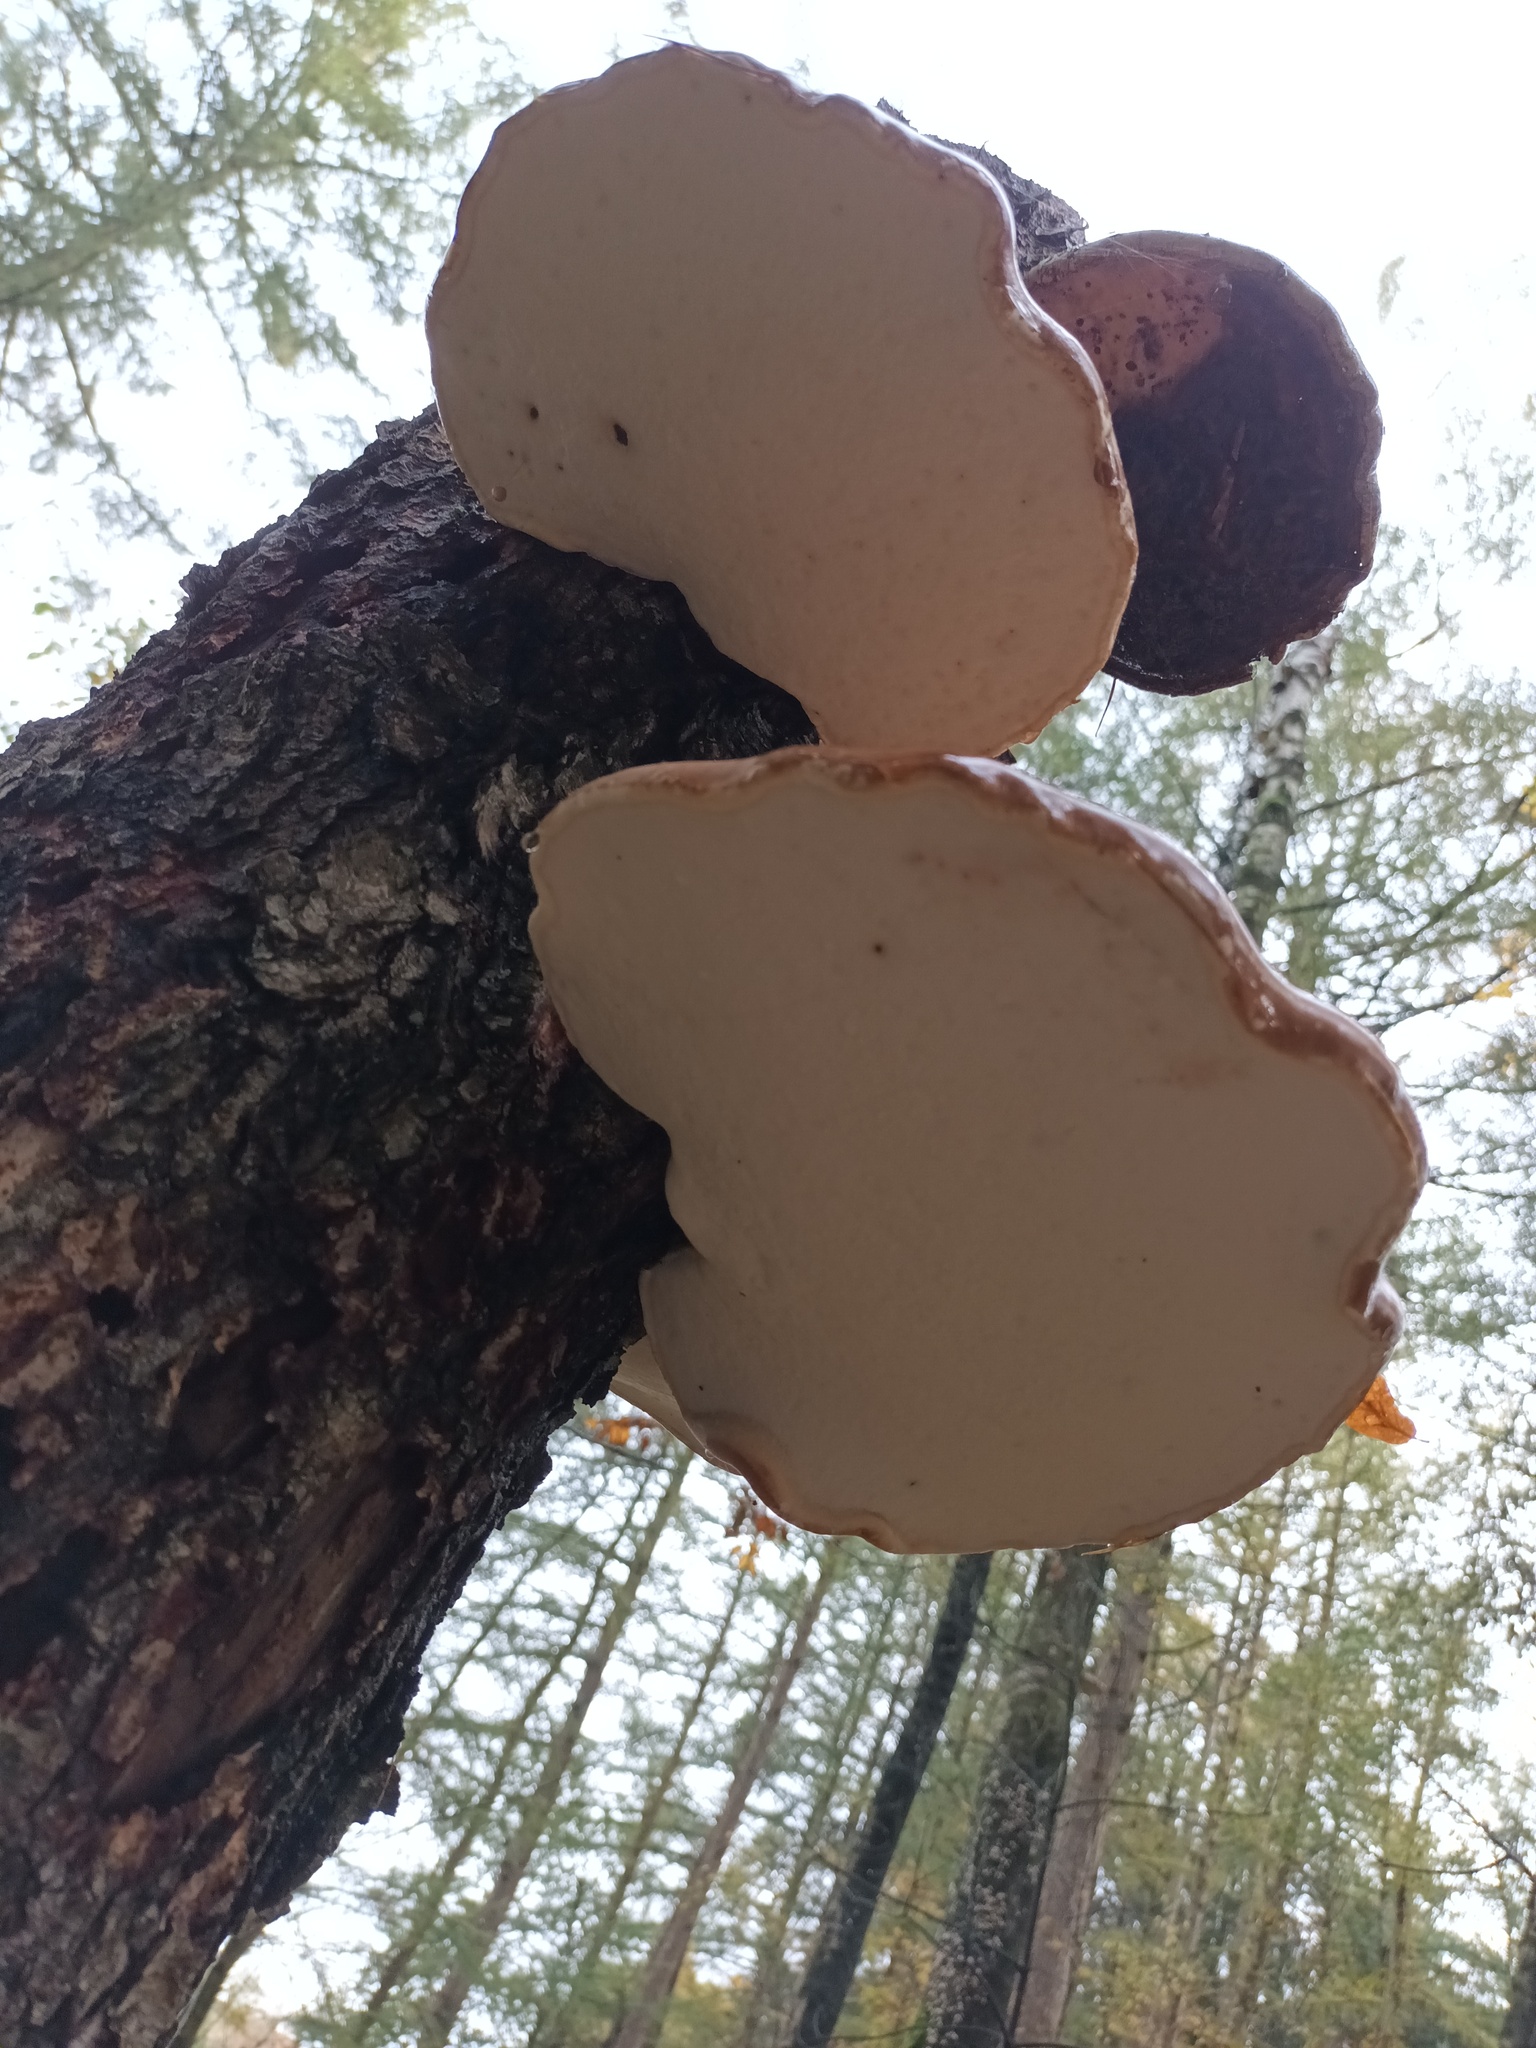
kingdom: Fungi
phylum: Basidiomycota
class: Agaricomycetes
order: Polyporales
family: Fomitopsidaceae
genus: Fomitopsis
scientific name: Fomitopsis betulina
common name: Birch polypore
